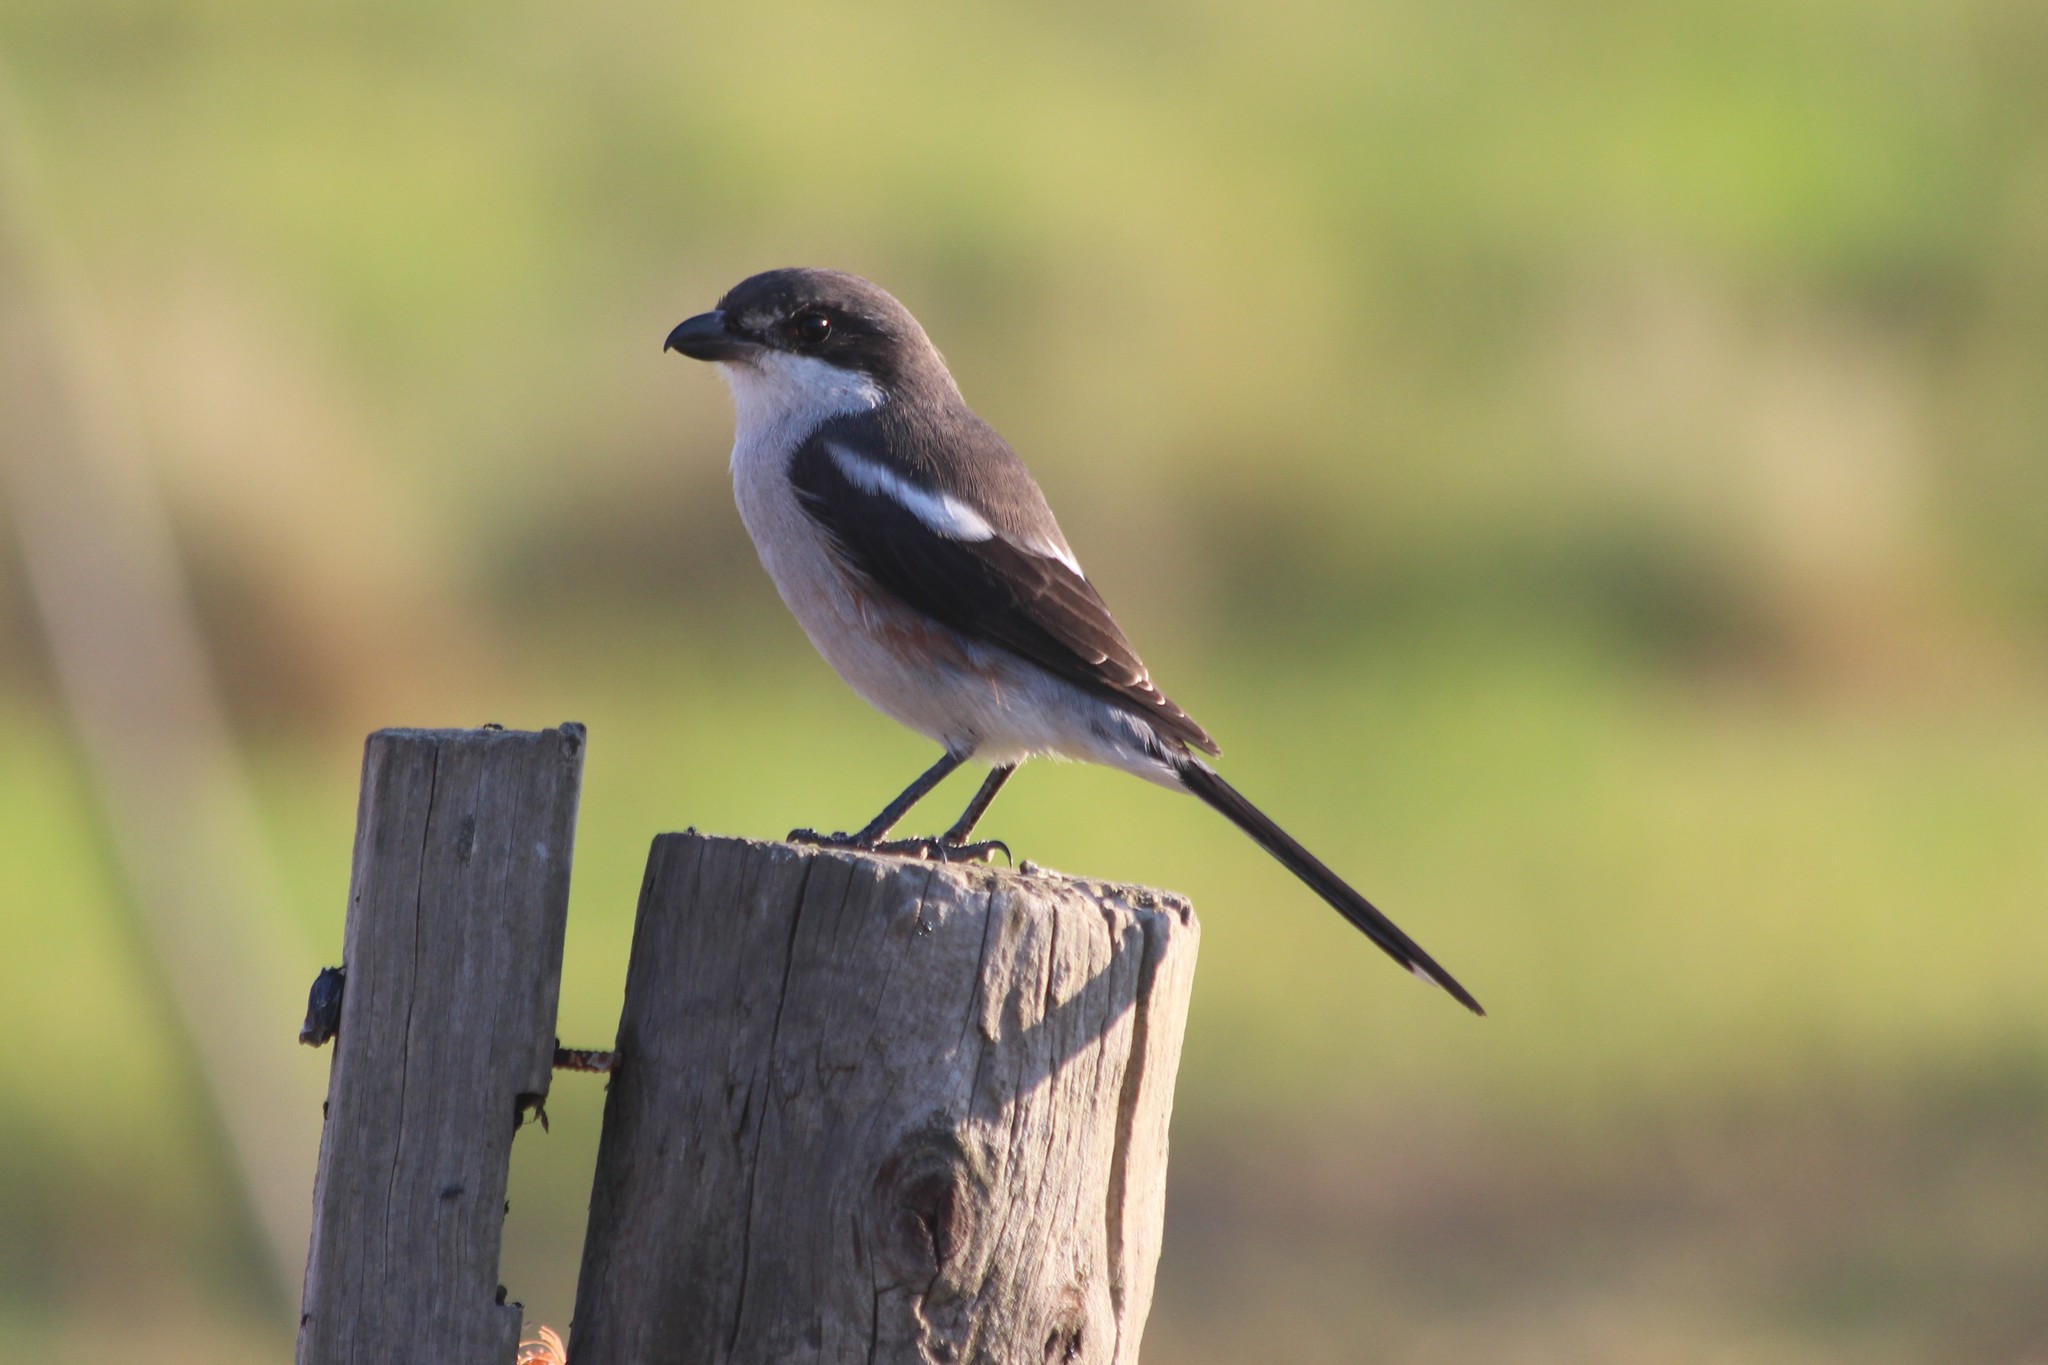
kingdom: Animalia
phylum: Chordata
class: Aves
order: Passeriformes
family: Laniidae
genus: Lanius
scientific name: Lanius collaris
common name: Southern fiscal
